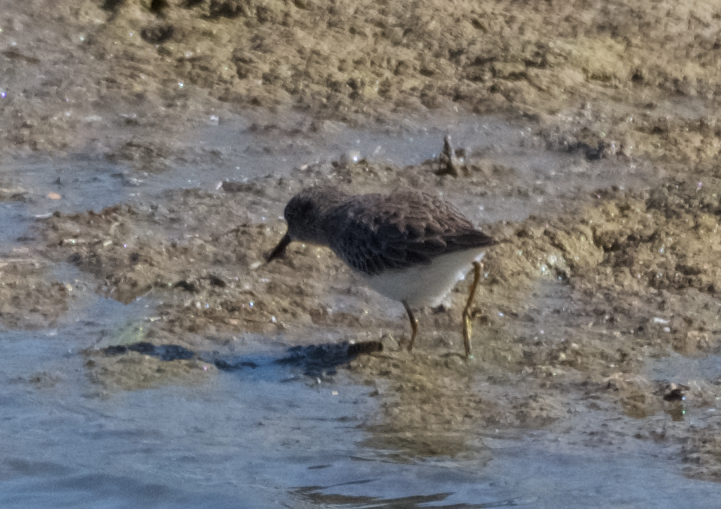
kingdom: Animalia
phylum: Chordata
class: Aves
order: Charadriiformes
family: Scolopacidae
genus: Calidris
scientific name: Calidris minutilla
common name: Least sandpiper
